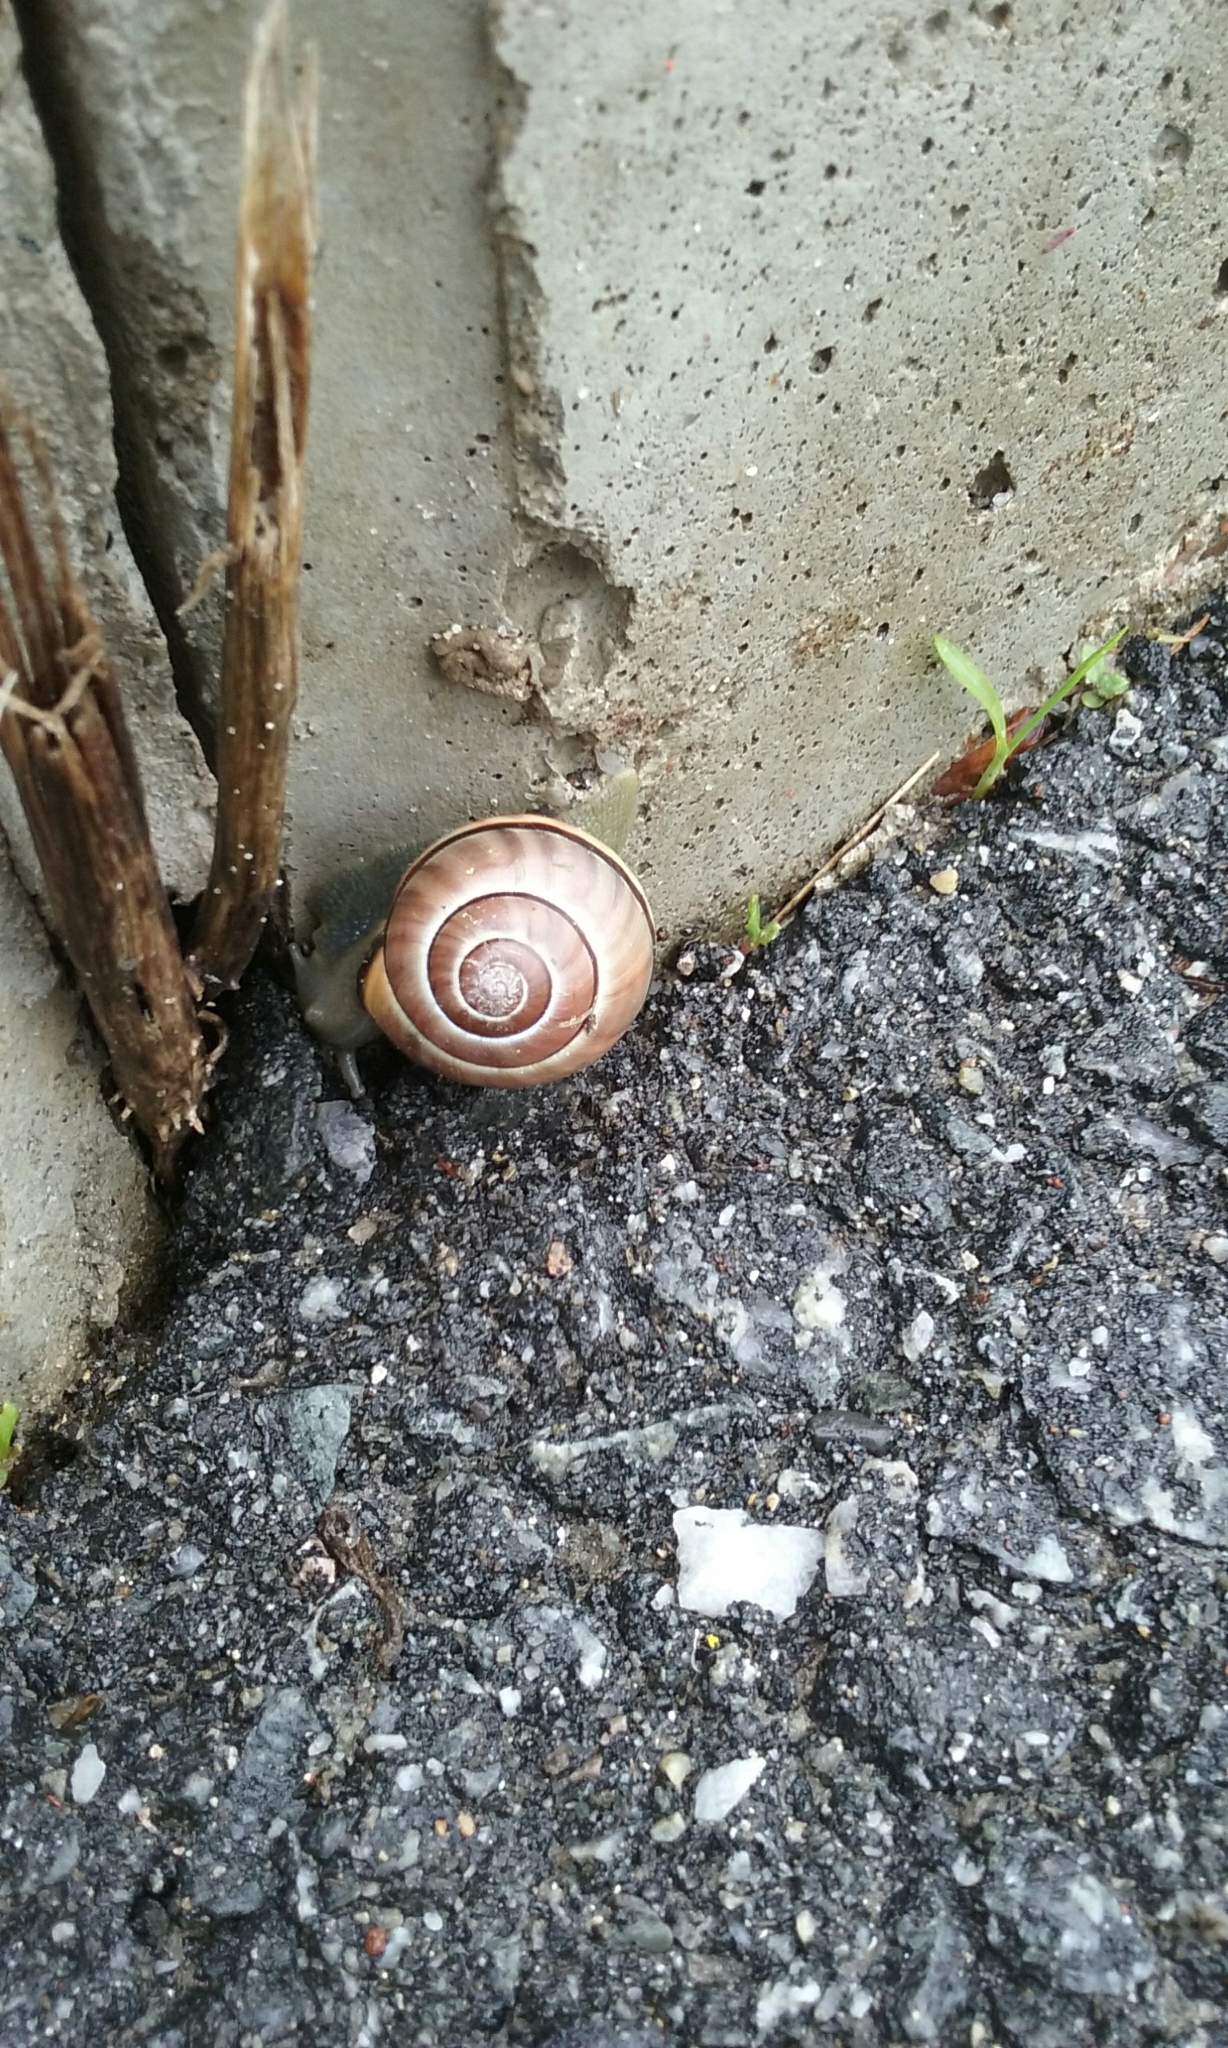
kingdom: Animalia
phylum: Mollusca
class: Gastropoda
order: Stylommatophora
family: Helicidae
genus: Cepaea
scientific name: Cepaea nemoralis
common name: Grovesnail
